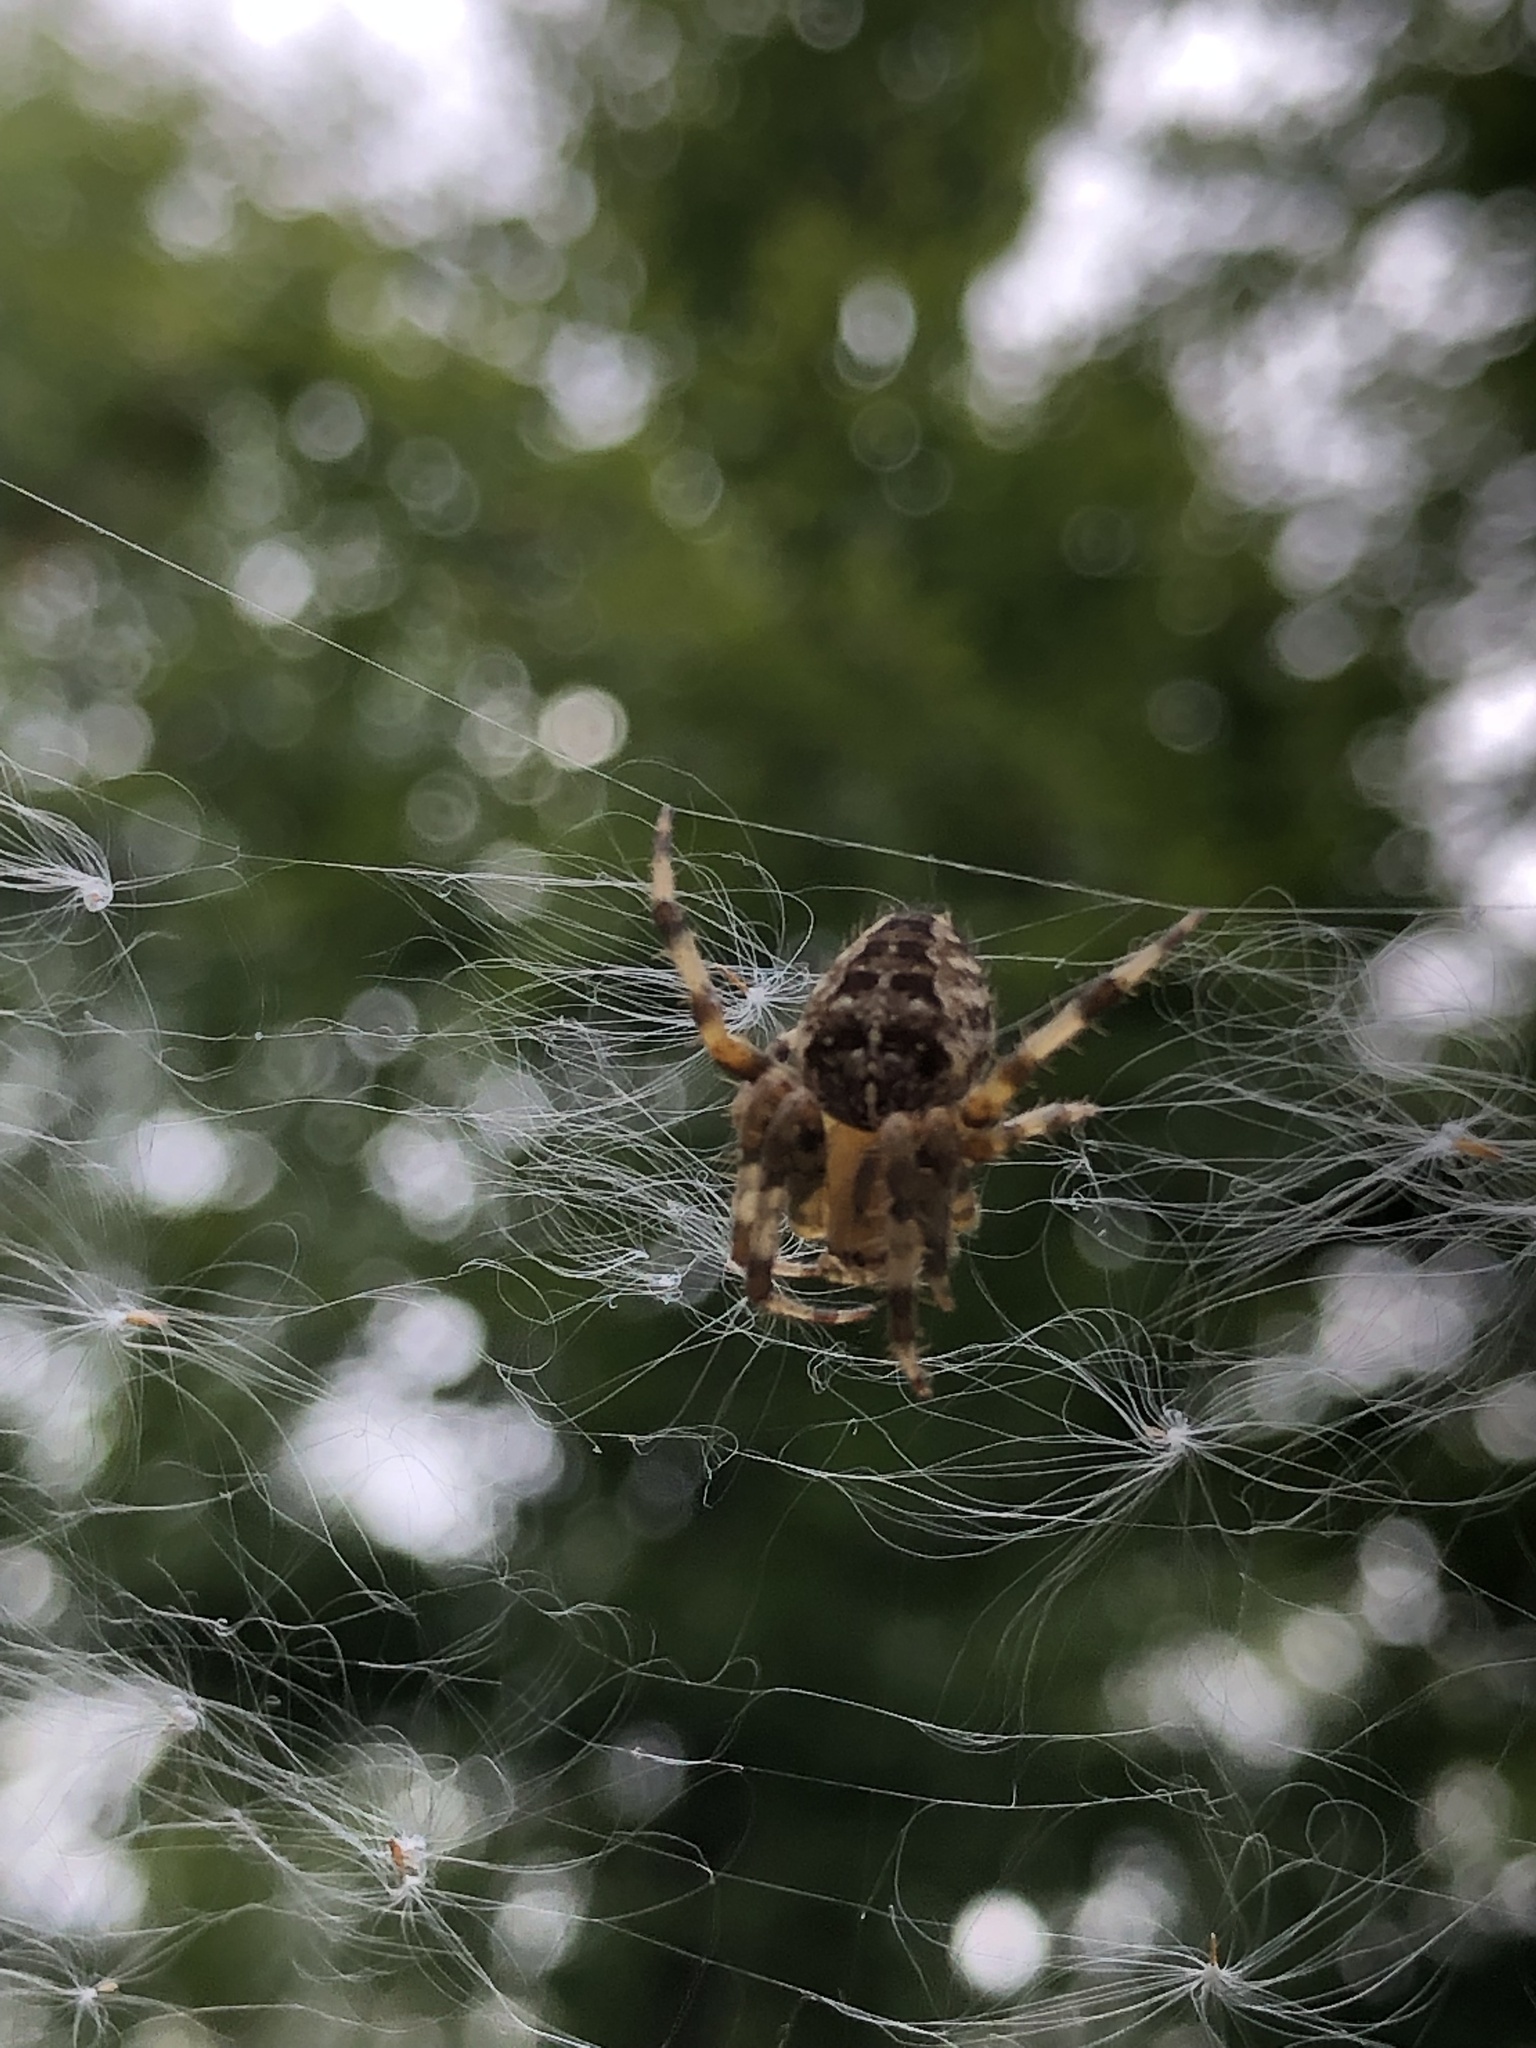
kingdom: Animalia
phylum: Arthropoda
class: Arachnida
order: Araneae
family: Araneidae
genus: Araneus
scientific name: Araneus diadematus
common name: Cross orbweaver
